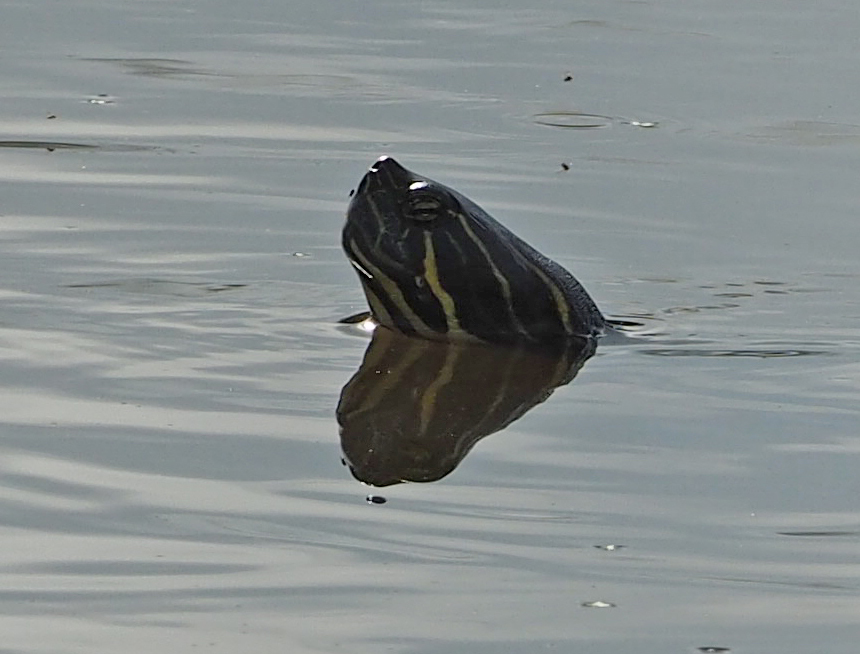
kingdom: Animalia
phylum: Chordata
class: Testudines
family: Emydidae
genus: Pseudemys
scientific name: Pseudemys peninsularis
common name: Peninsula cooter
